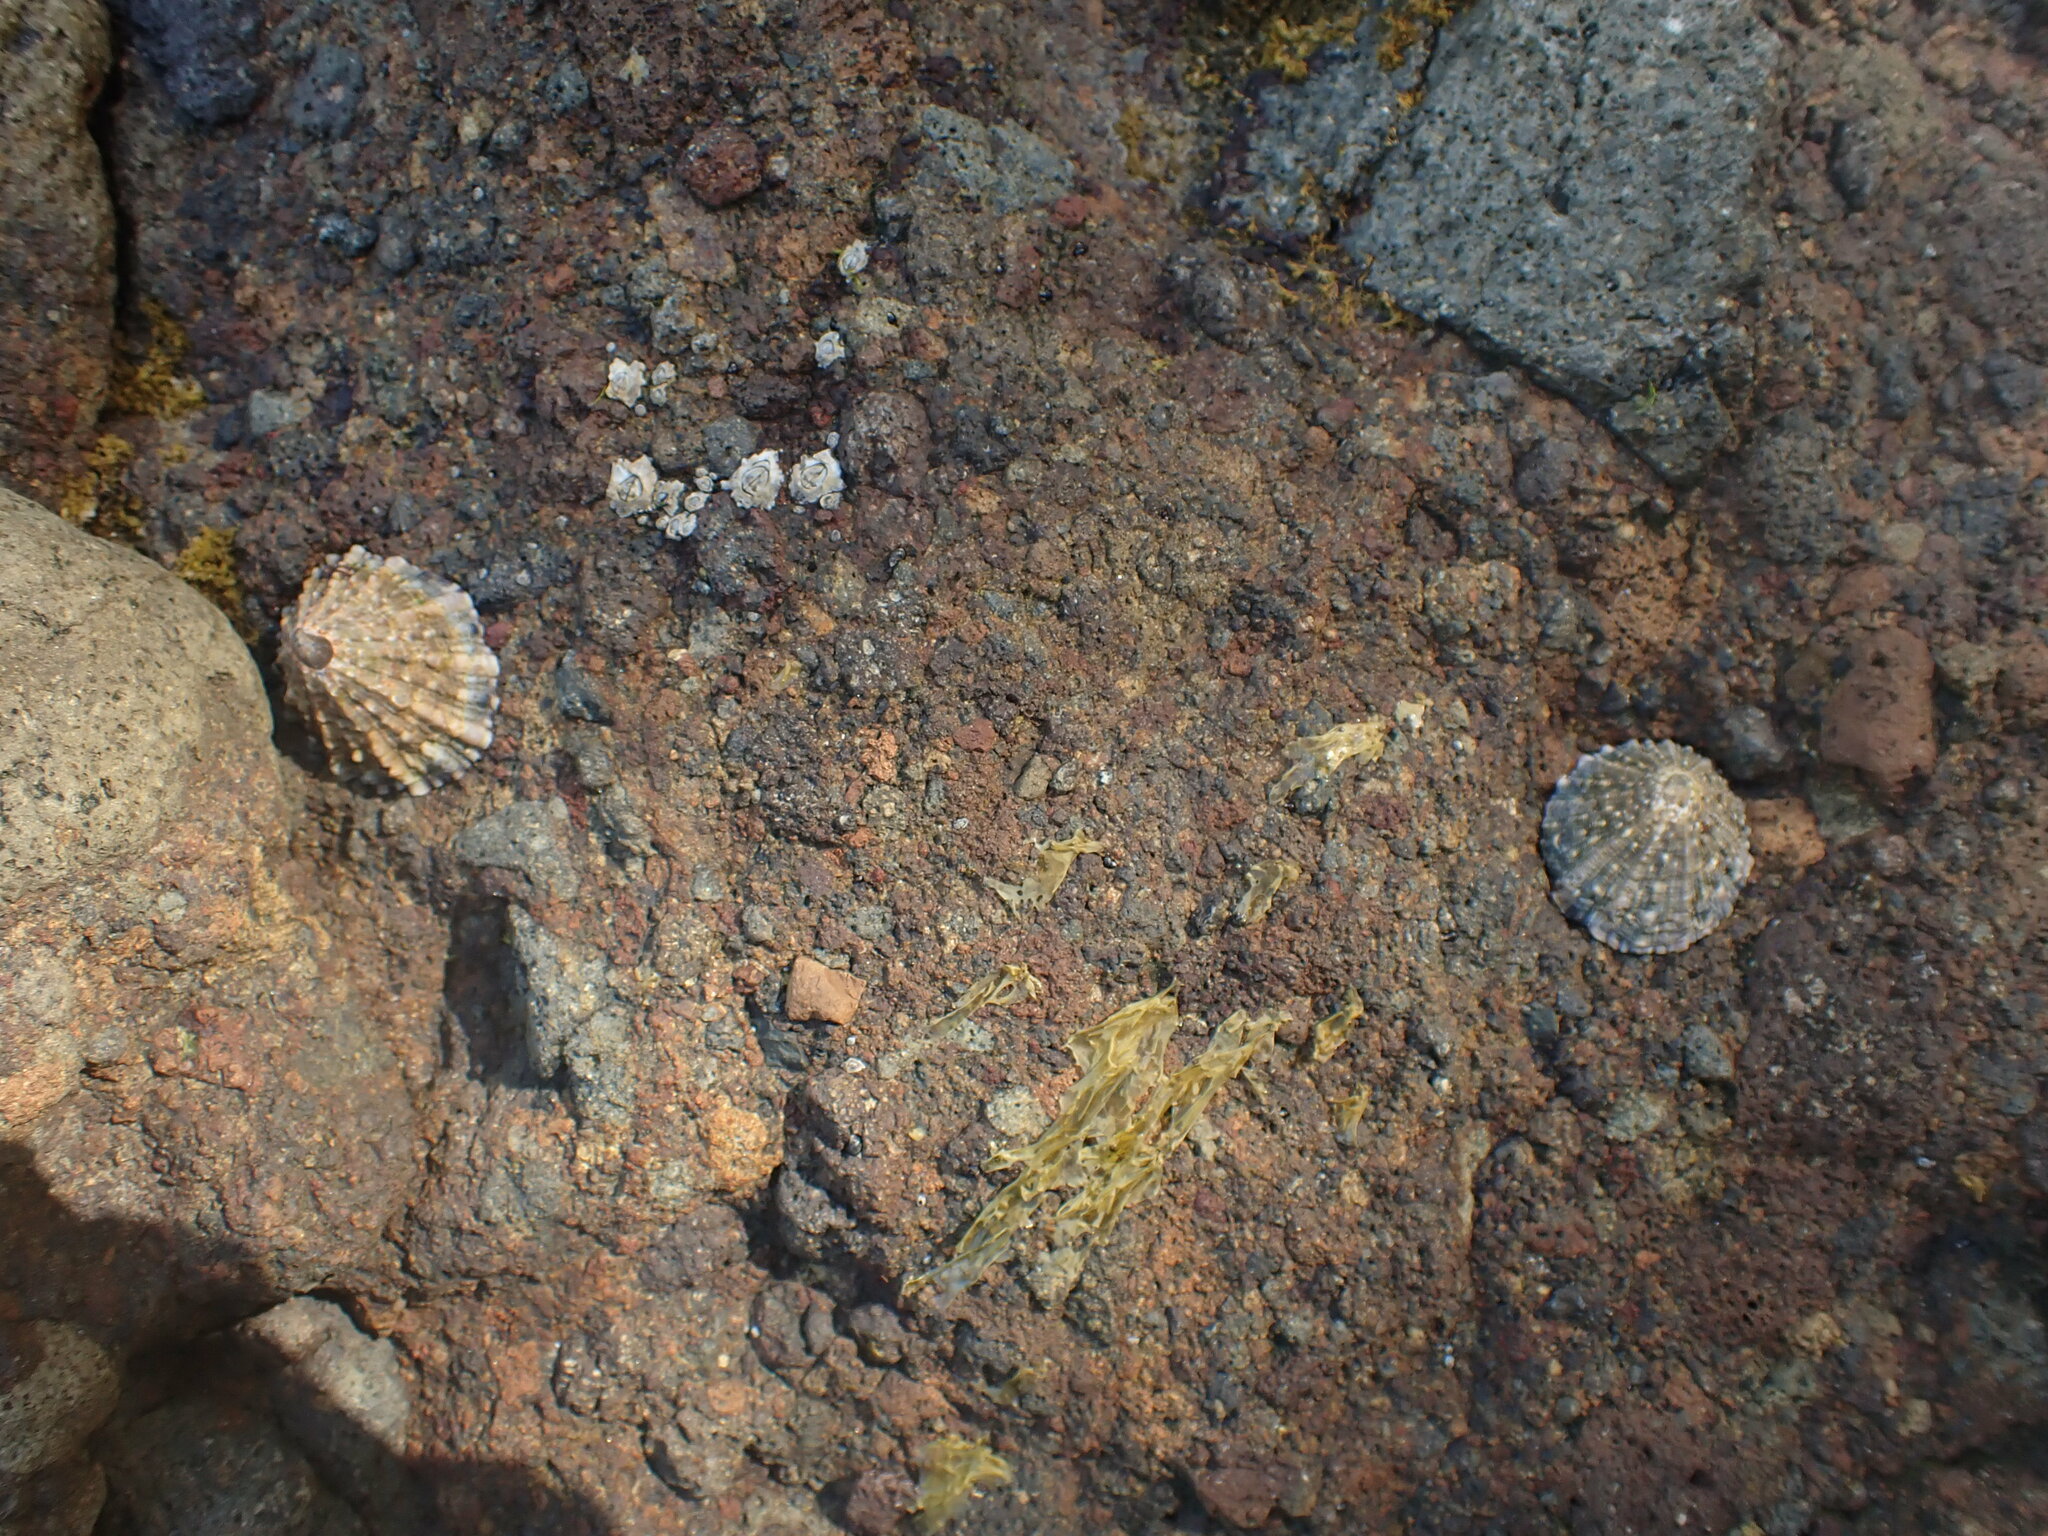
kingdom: Animalia
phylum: Mollusca
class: Gastropoda
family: Nacellidae
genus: Cellana
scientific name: Cellana ornata
